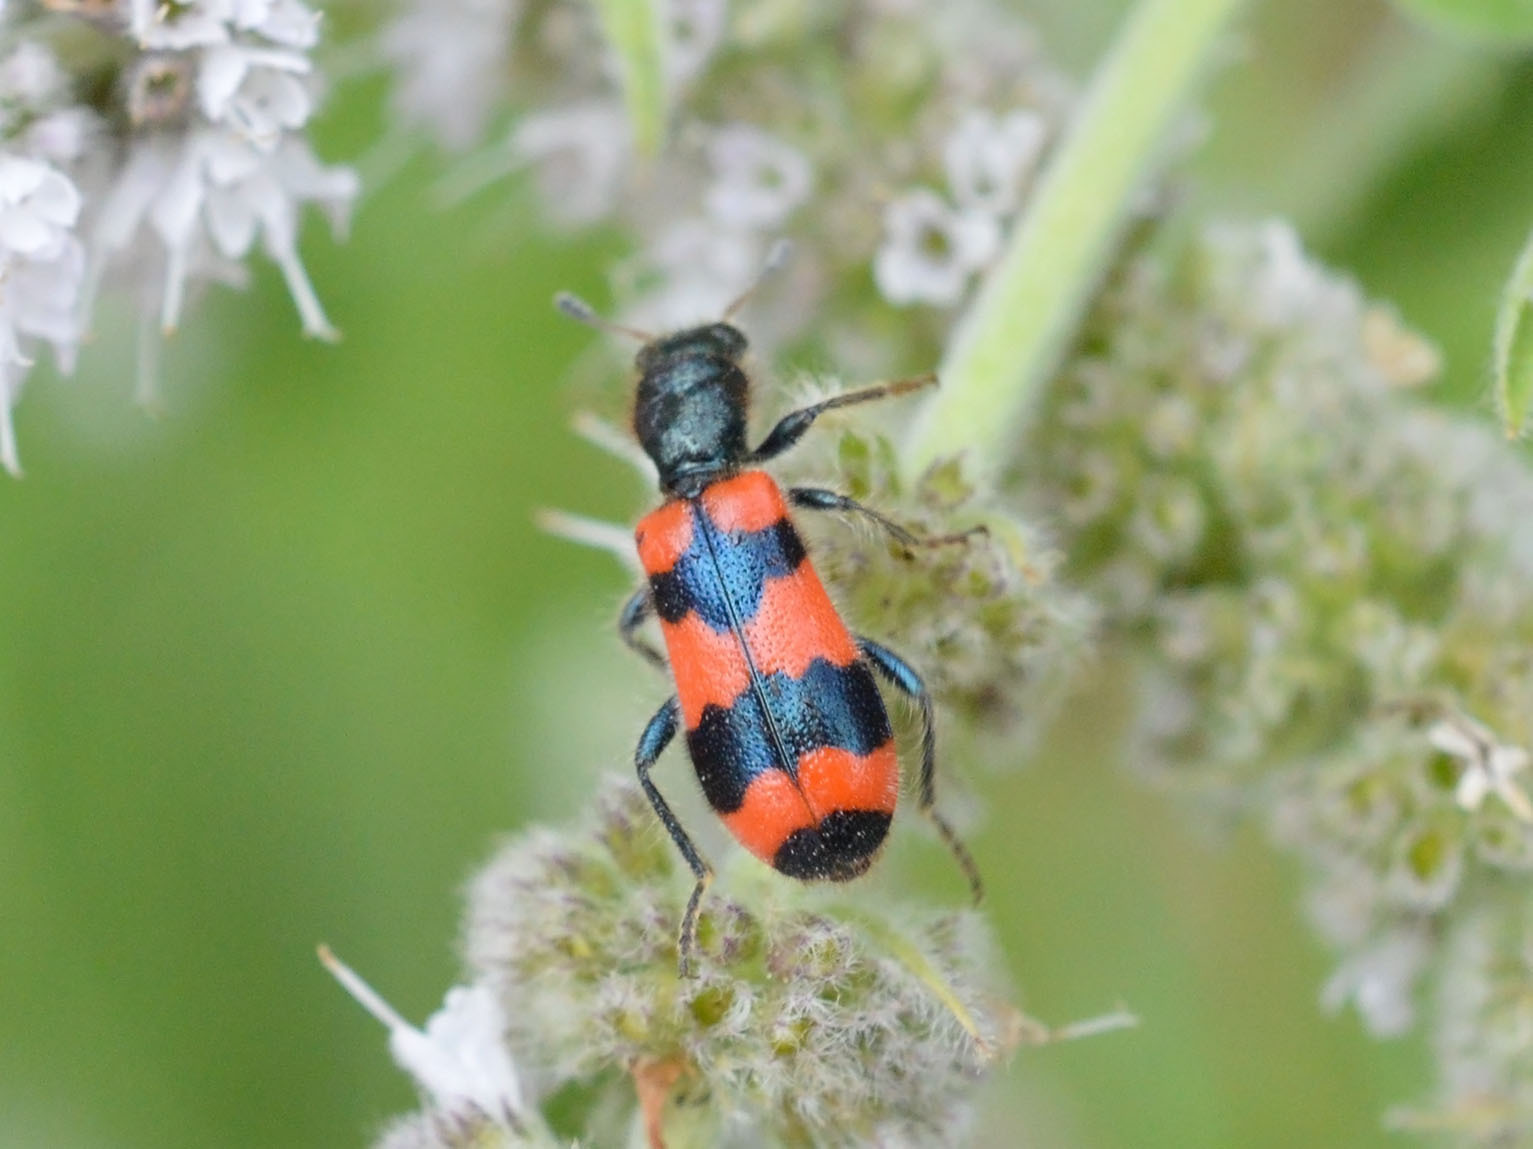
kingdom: Animalia
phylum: Arthropoda
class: Insecta
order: Coleoptera
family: Cleridae
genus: Trichodes
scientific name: Trichodes apiarius
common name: Bee-eating beetle
